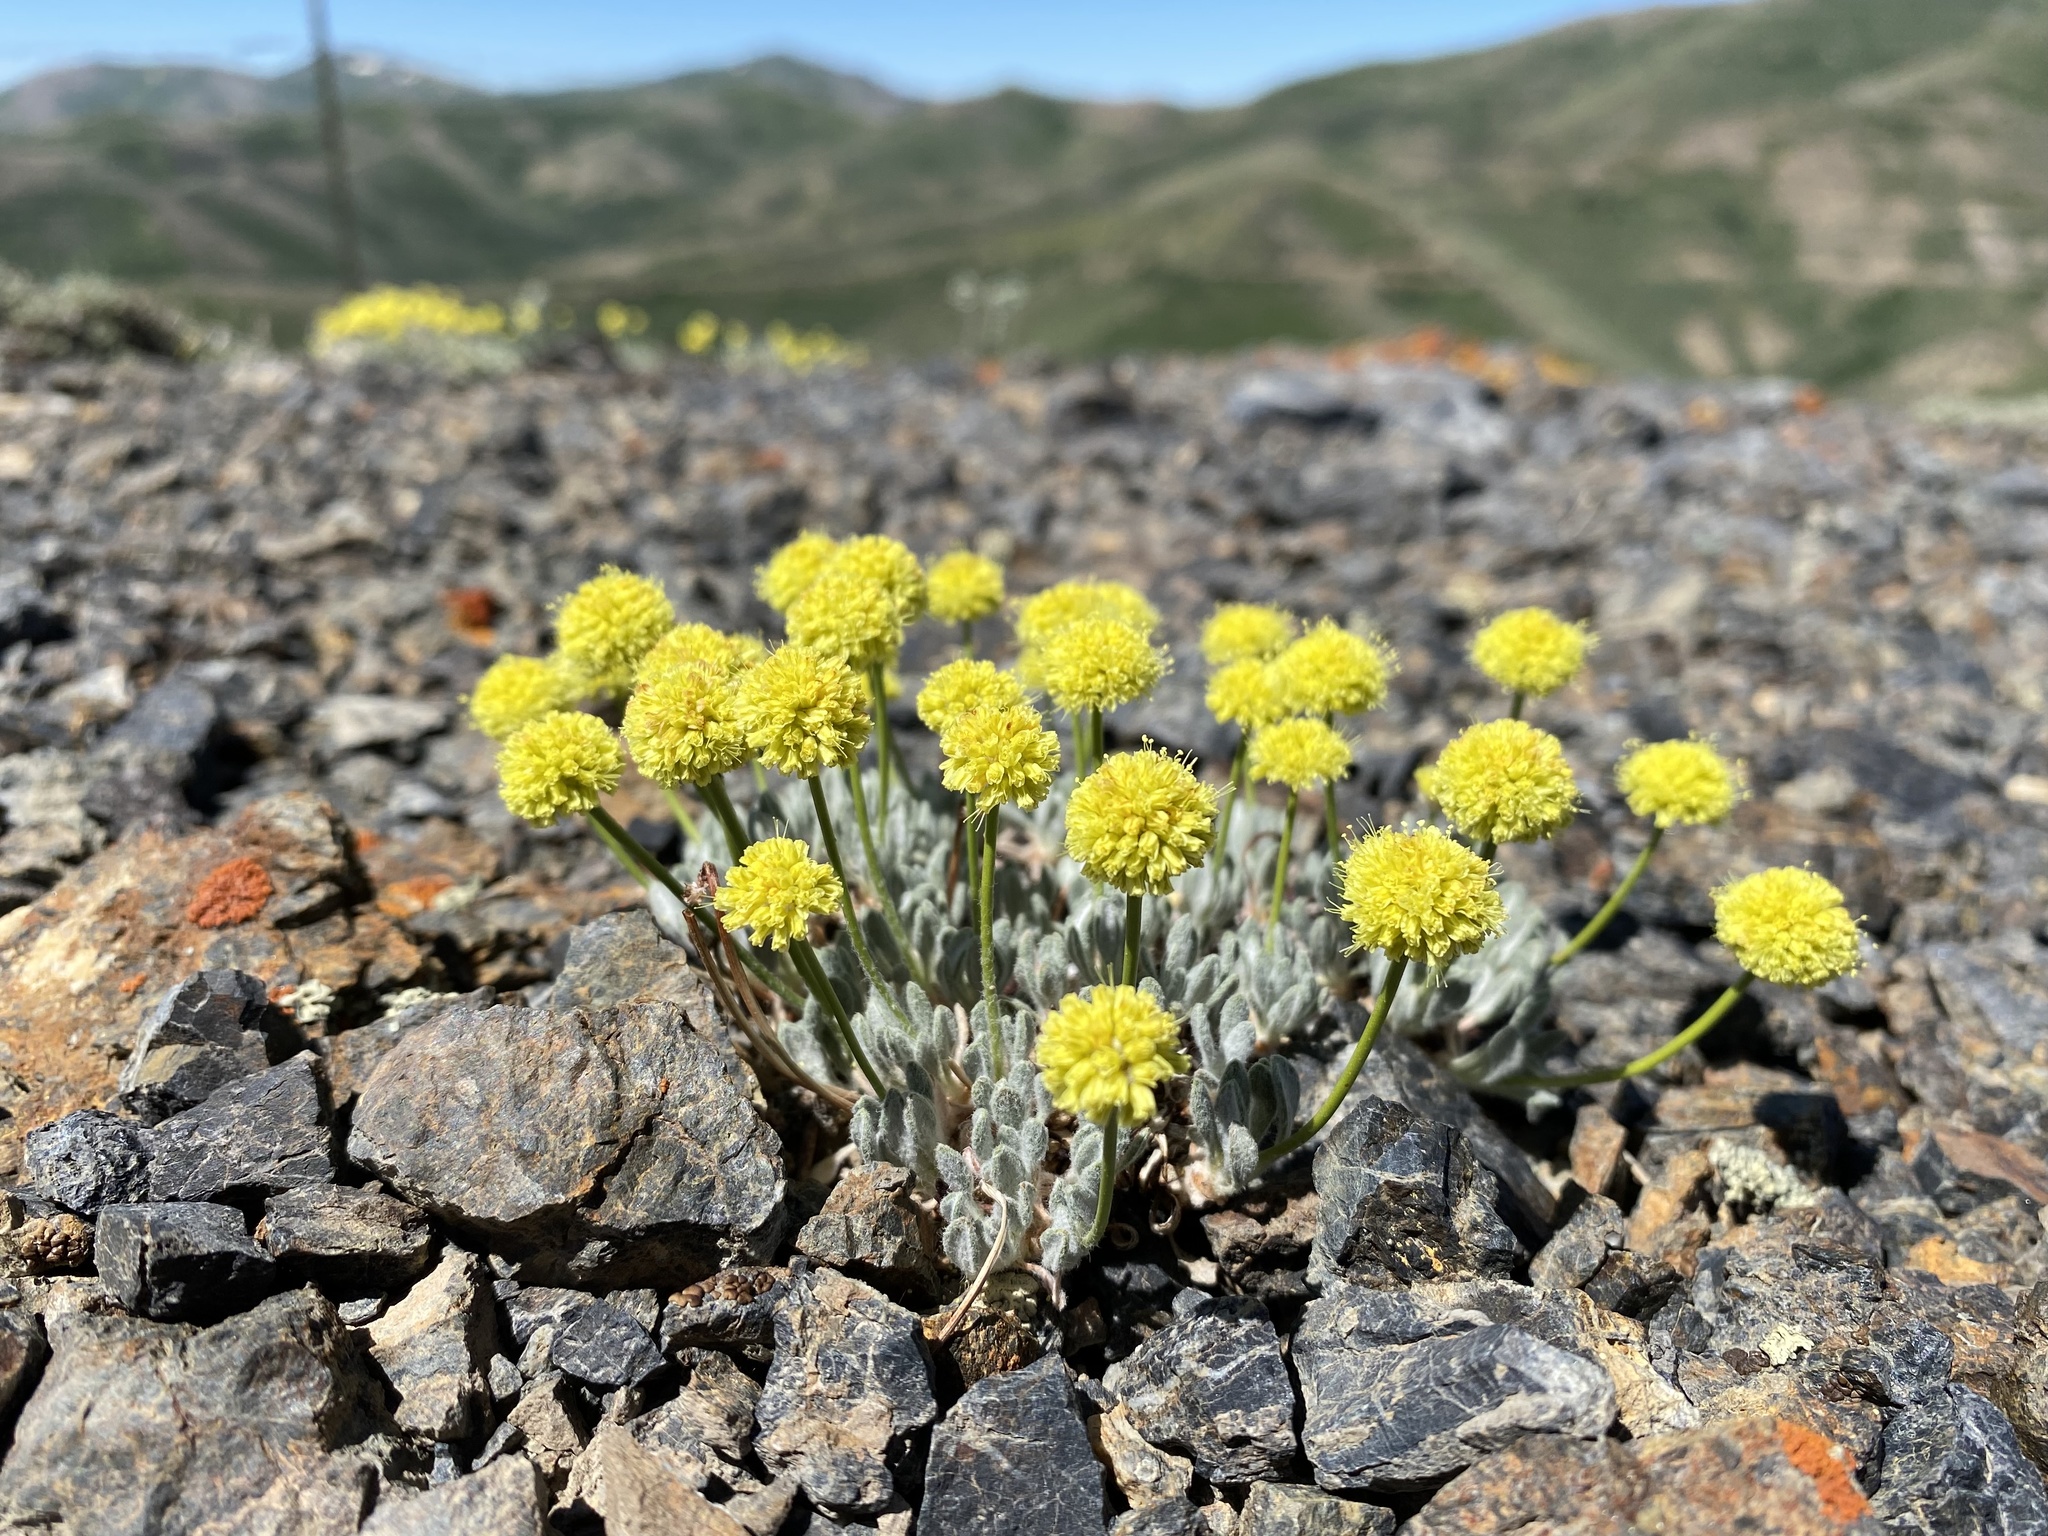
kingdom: Plantae
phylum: Tracheophyta
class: Magnoliopsida
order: Caryophyllales
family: Polygonaceae
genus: Eriogonum
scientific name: Eriogonum desertorum
